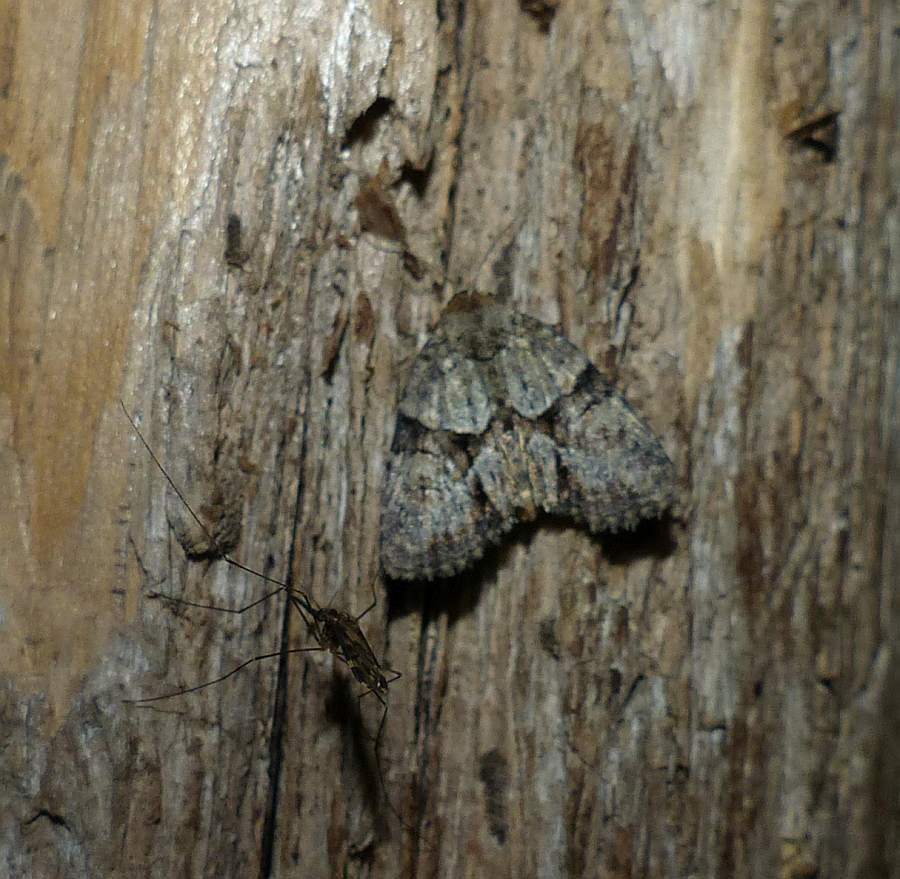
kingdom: Animalia
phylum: Arthropoda
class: Insecta
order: Lepidoptera
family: Noctuidae
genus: Neoligia
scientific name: Neoligia exhausta
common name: Exhausted brocade
